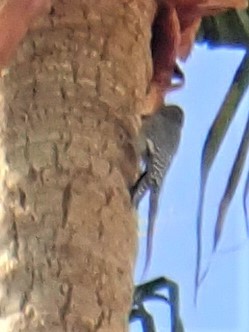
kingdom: Animalia
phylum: Chordata
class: Aves
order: Piciformes
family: Picidae
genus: Melanerpes
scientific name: Melanerpes uropygialis
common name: Gila woodpecker
